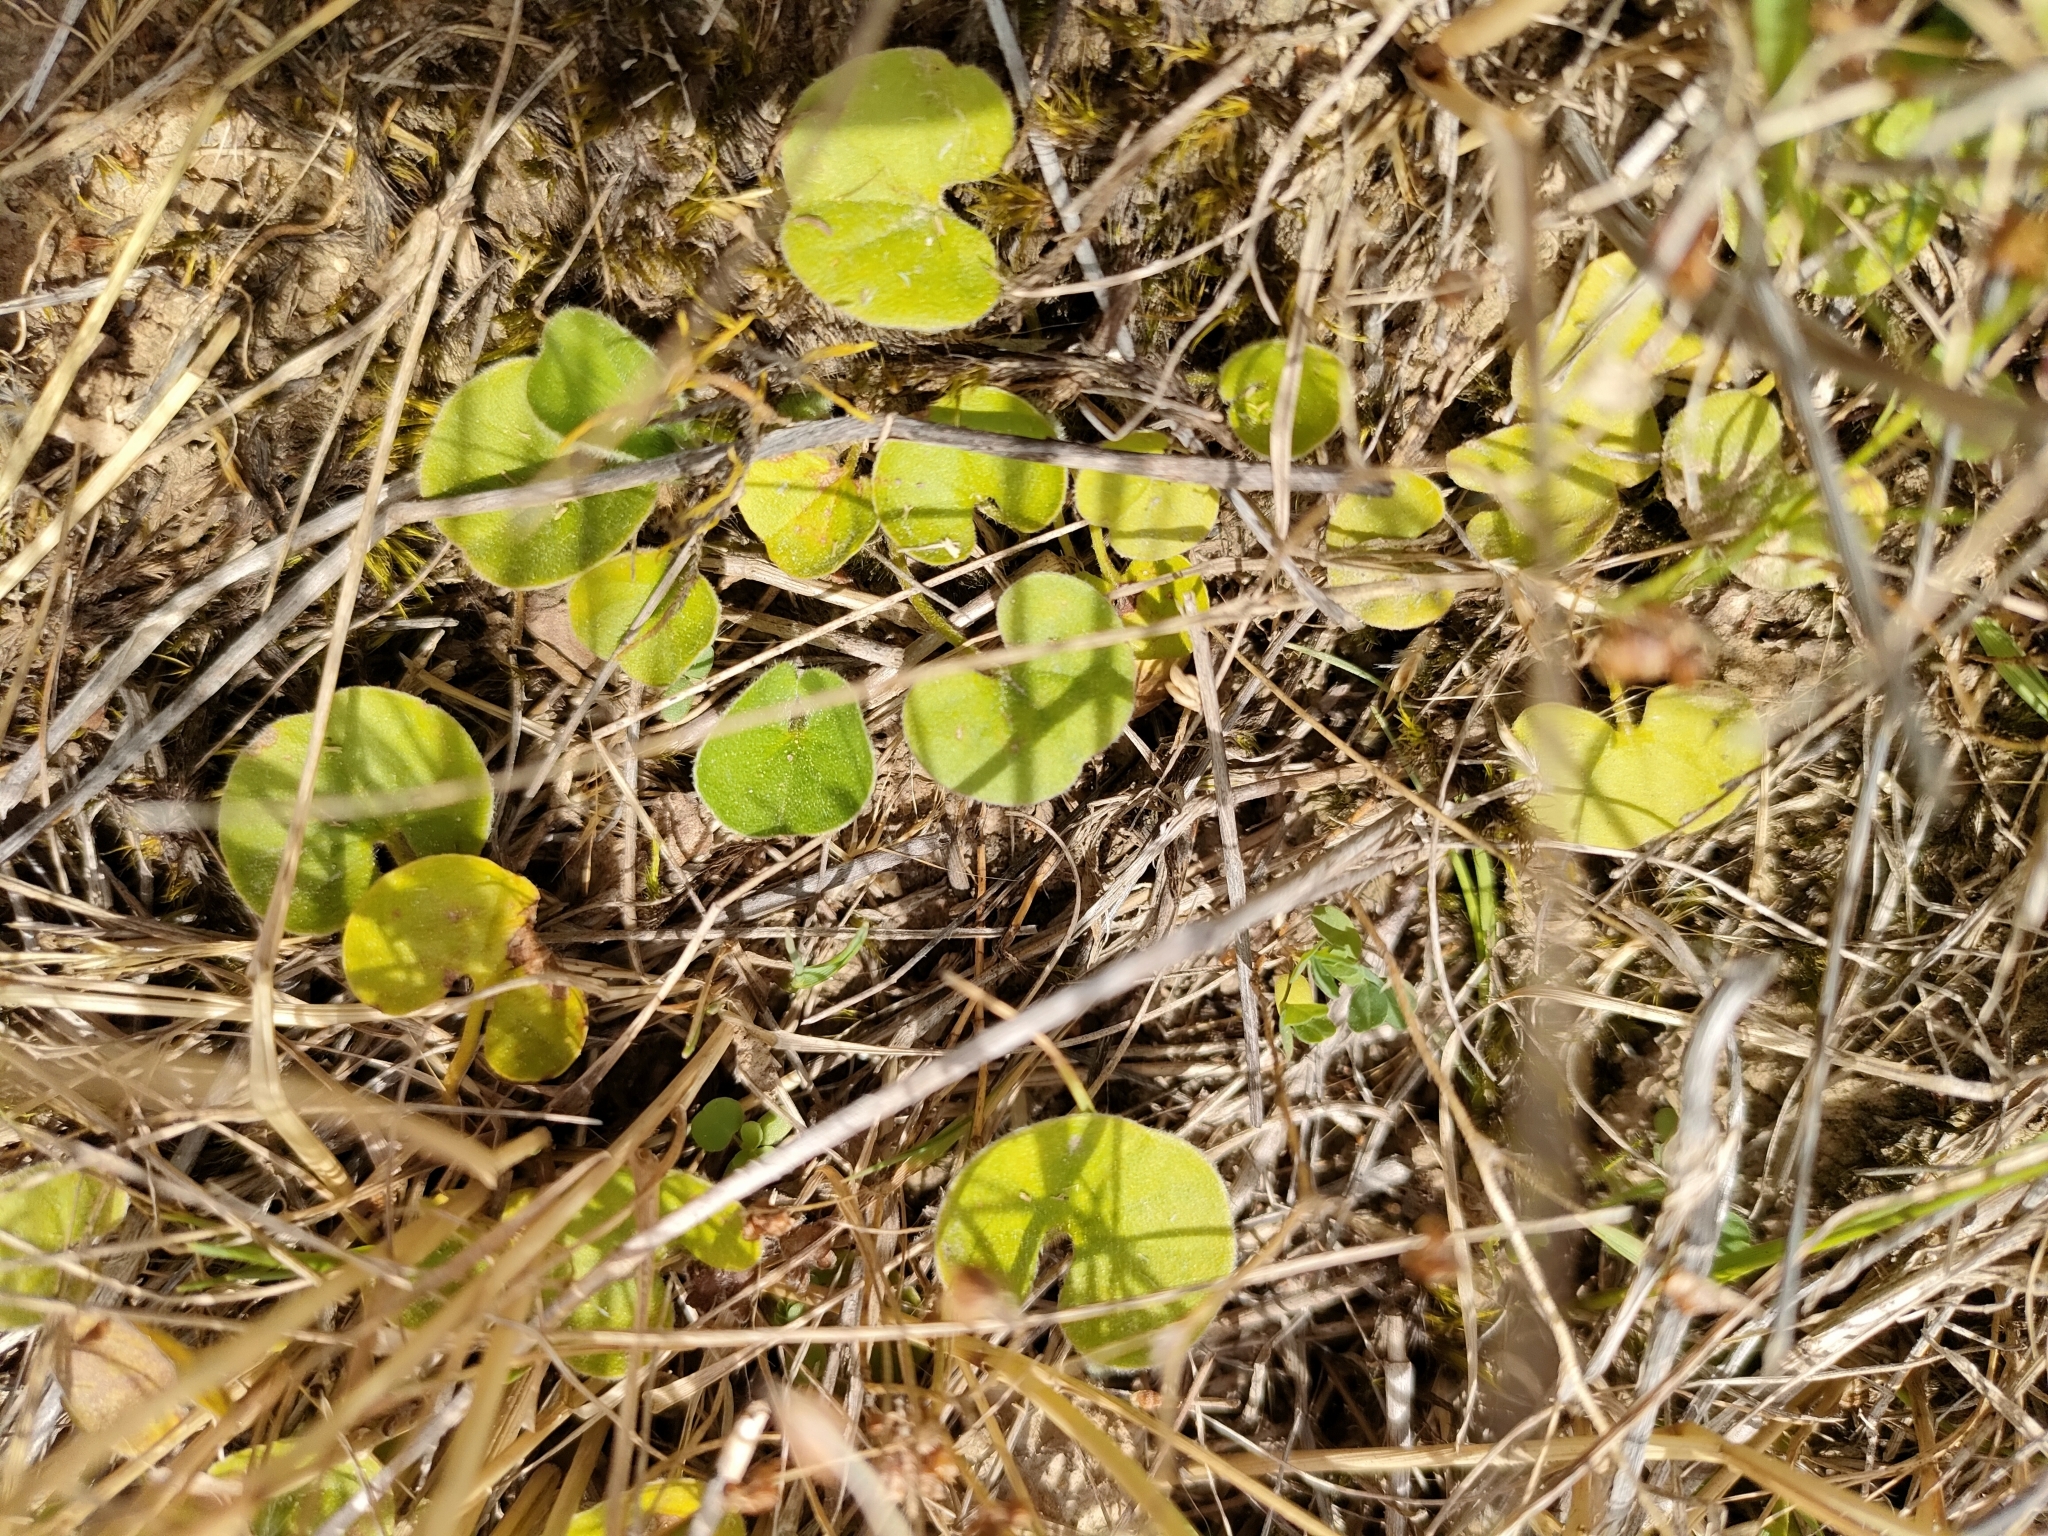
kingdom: Plantae
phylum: Tracheophyta
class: Magnoliopsida
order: Solanales
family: Convolvulaceae
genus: Dichondra
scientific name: Dichondra repens
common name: Kidneyweed
